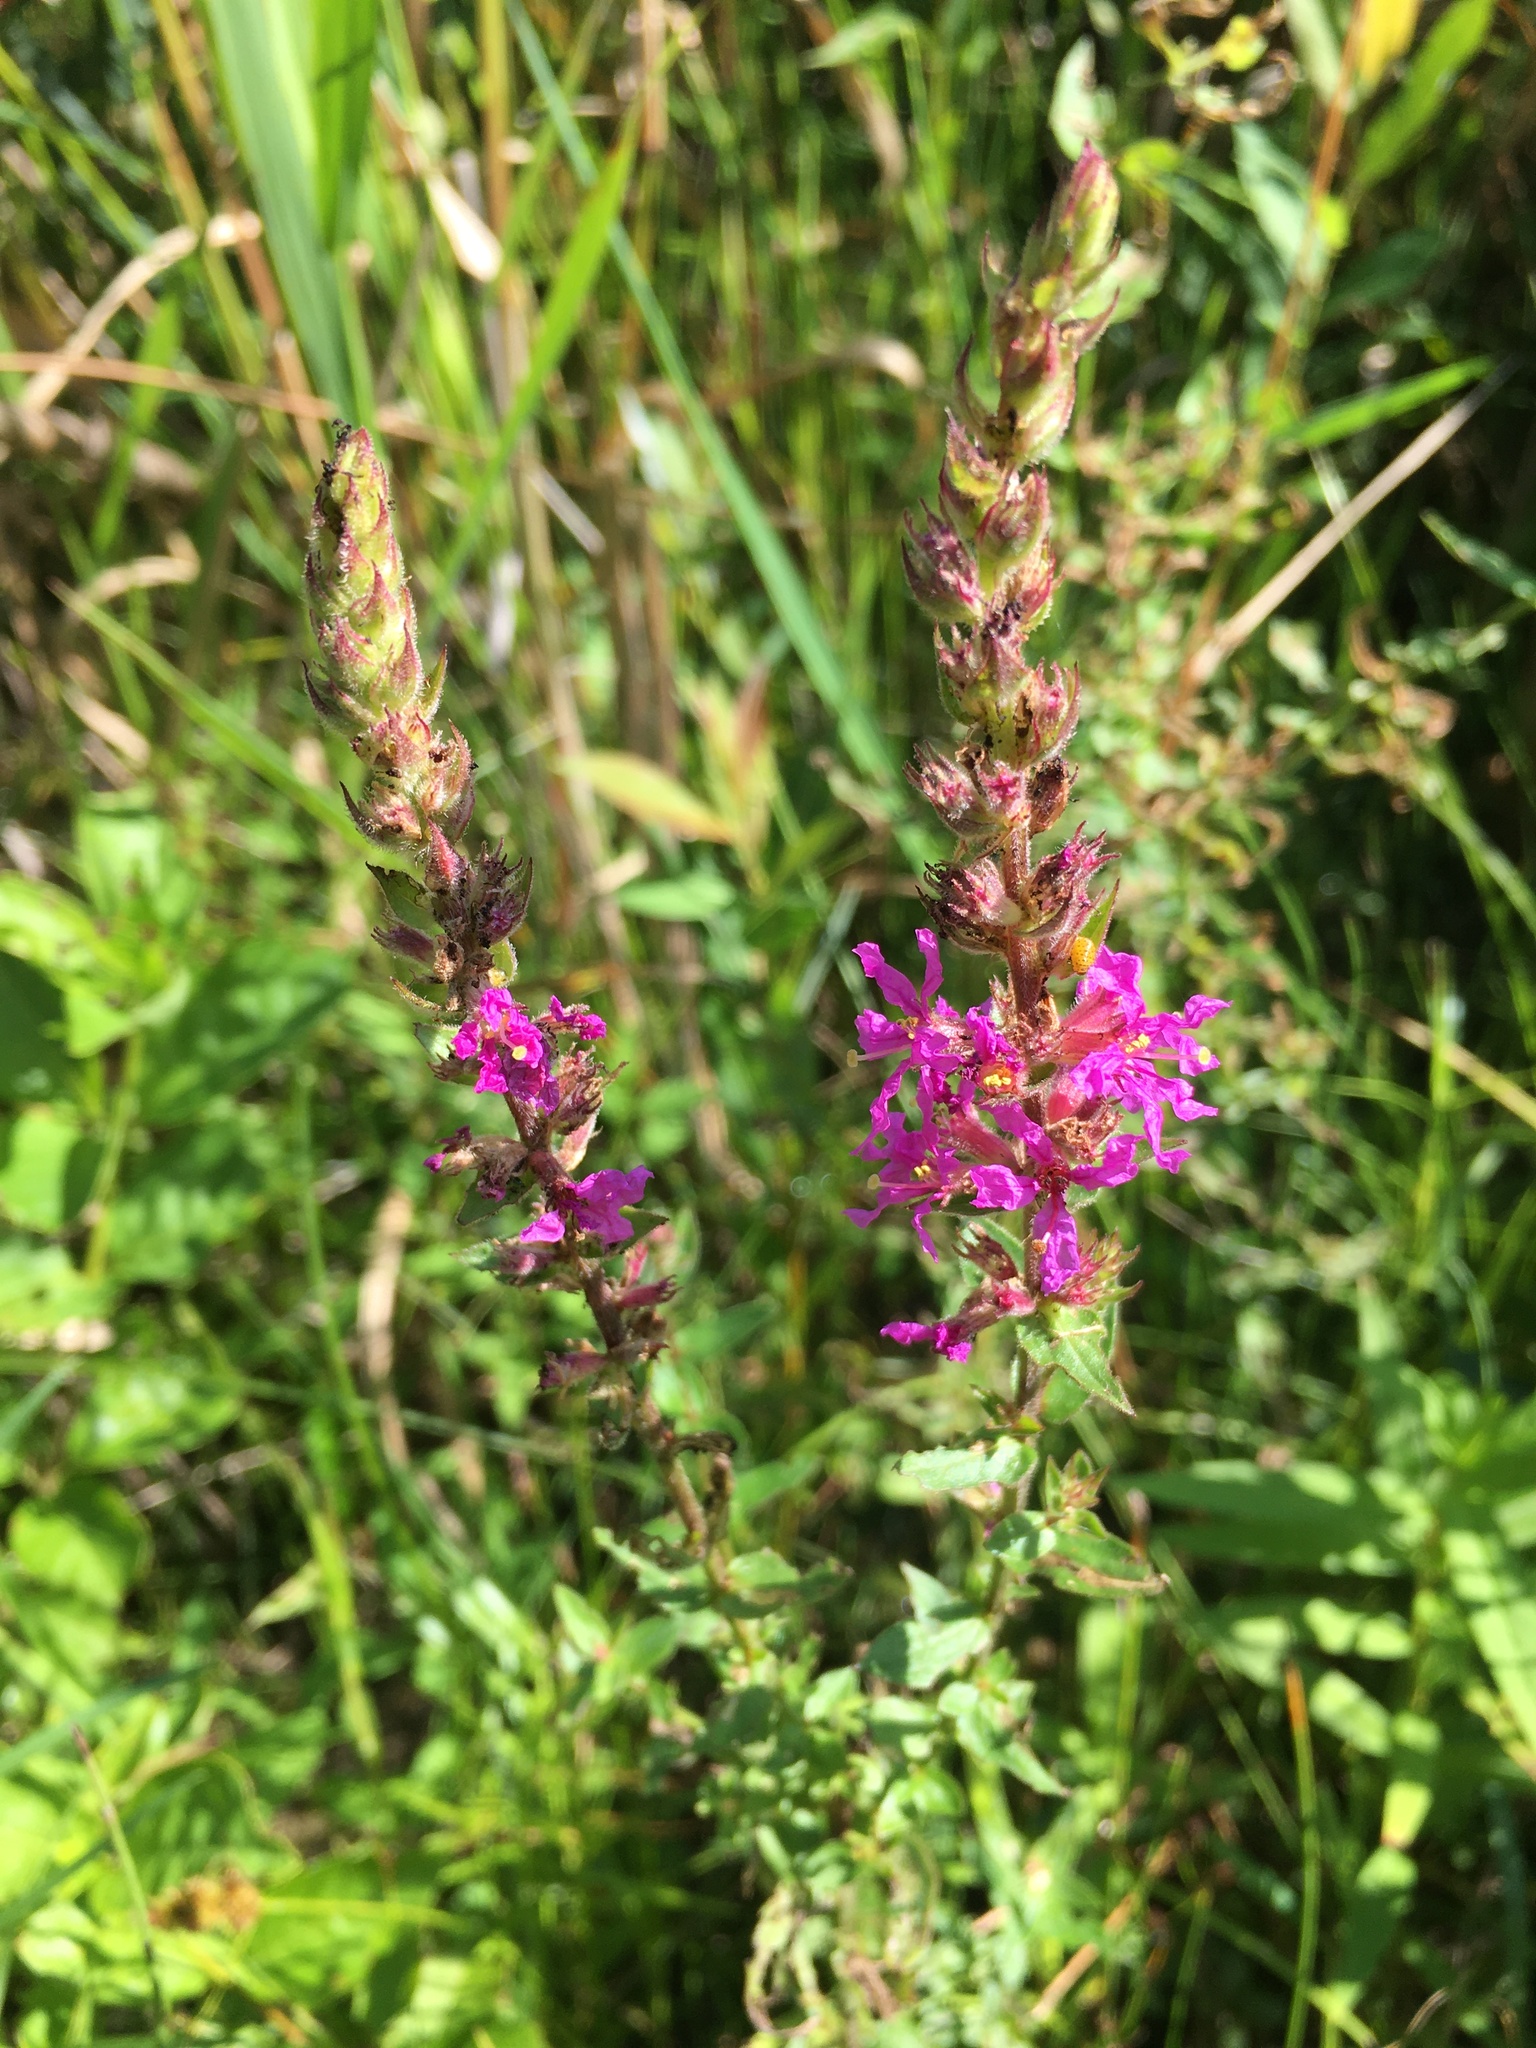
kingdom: Plantae
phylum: Tracheophyta
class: Magnoliopsida
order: Myrtales
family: Lythraceae
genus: Lythrum
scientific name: Lythrum salicaria
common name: Purple loosestrife
